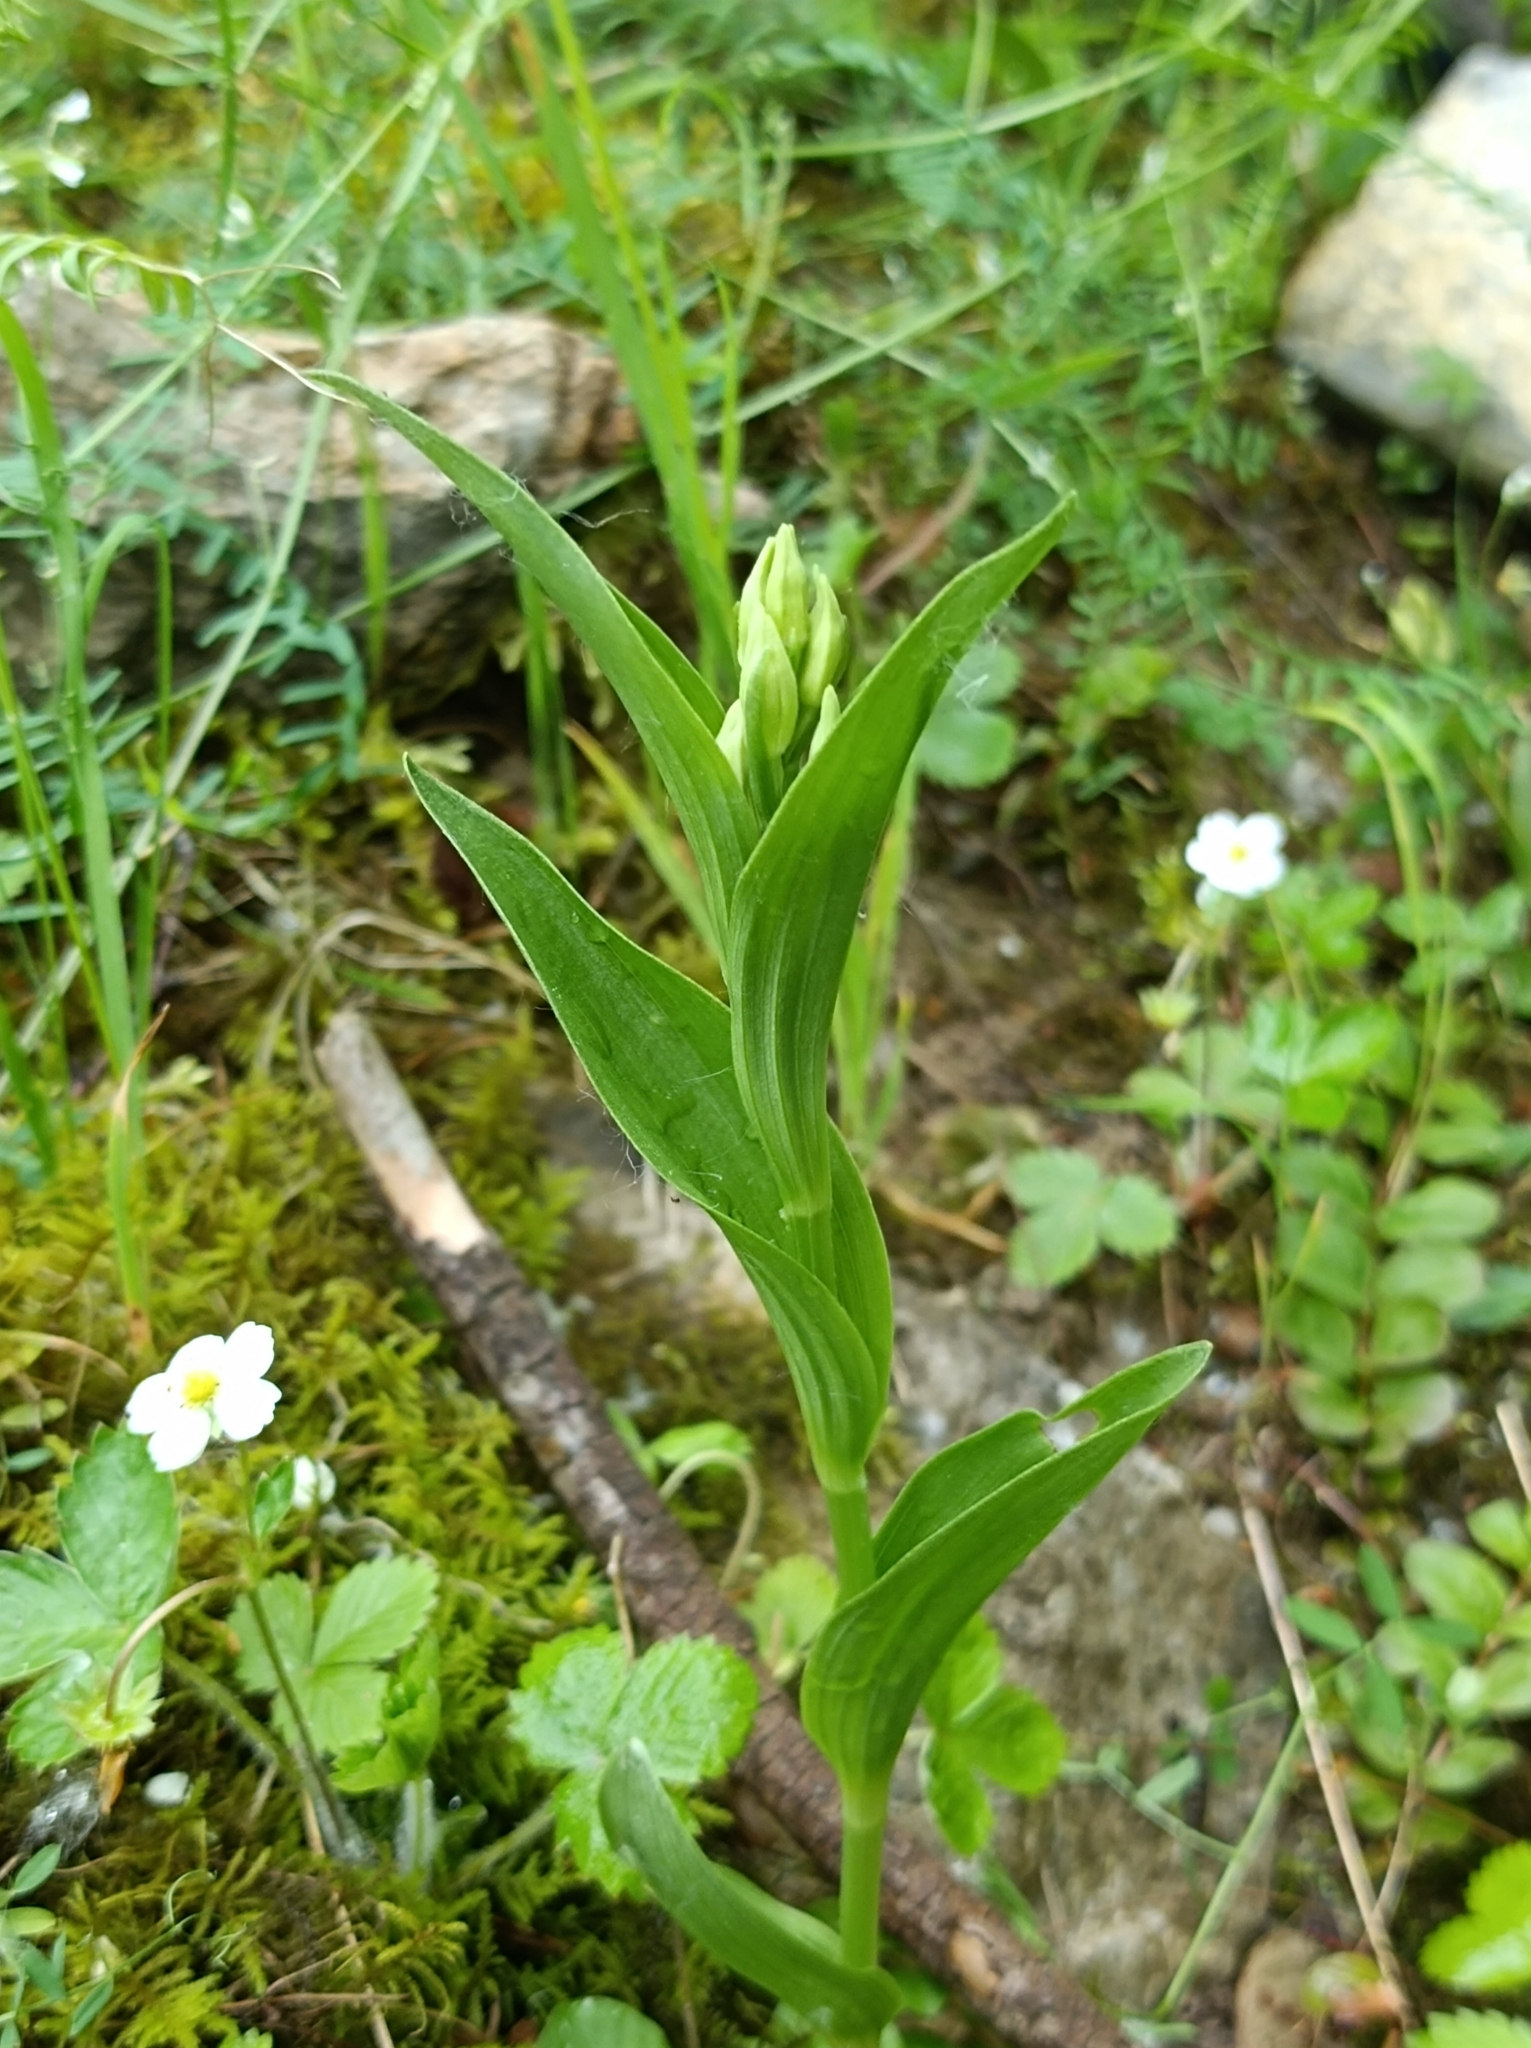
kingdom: Plantae
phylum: Tracheophyta
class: Liliopsida
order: Asparagales
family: Orchidaceae
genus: Cephalanthera
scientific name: Cephalanthera damasonium
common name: White helleborine
